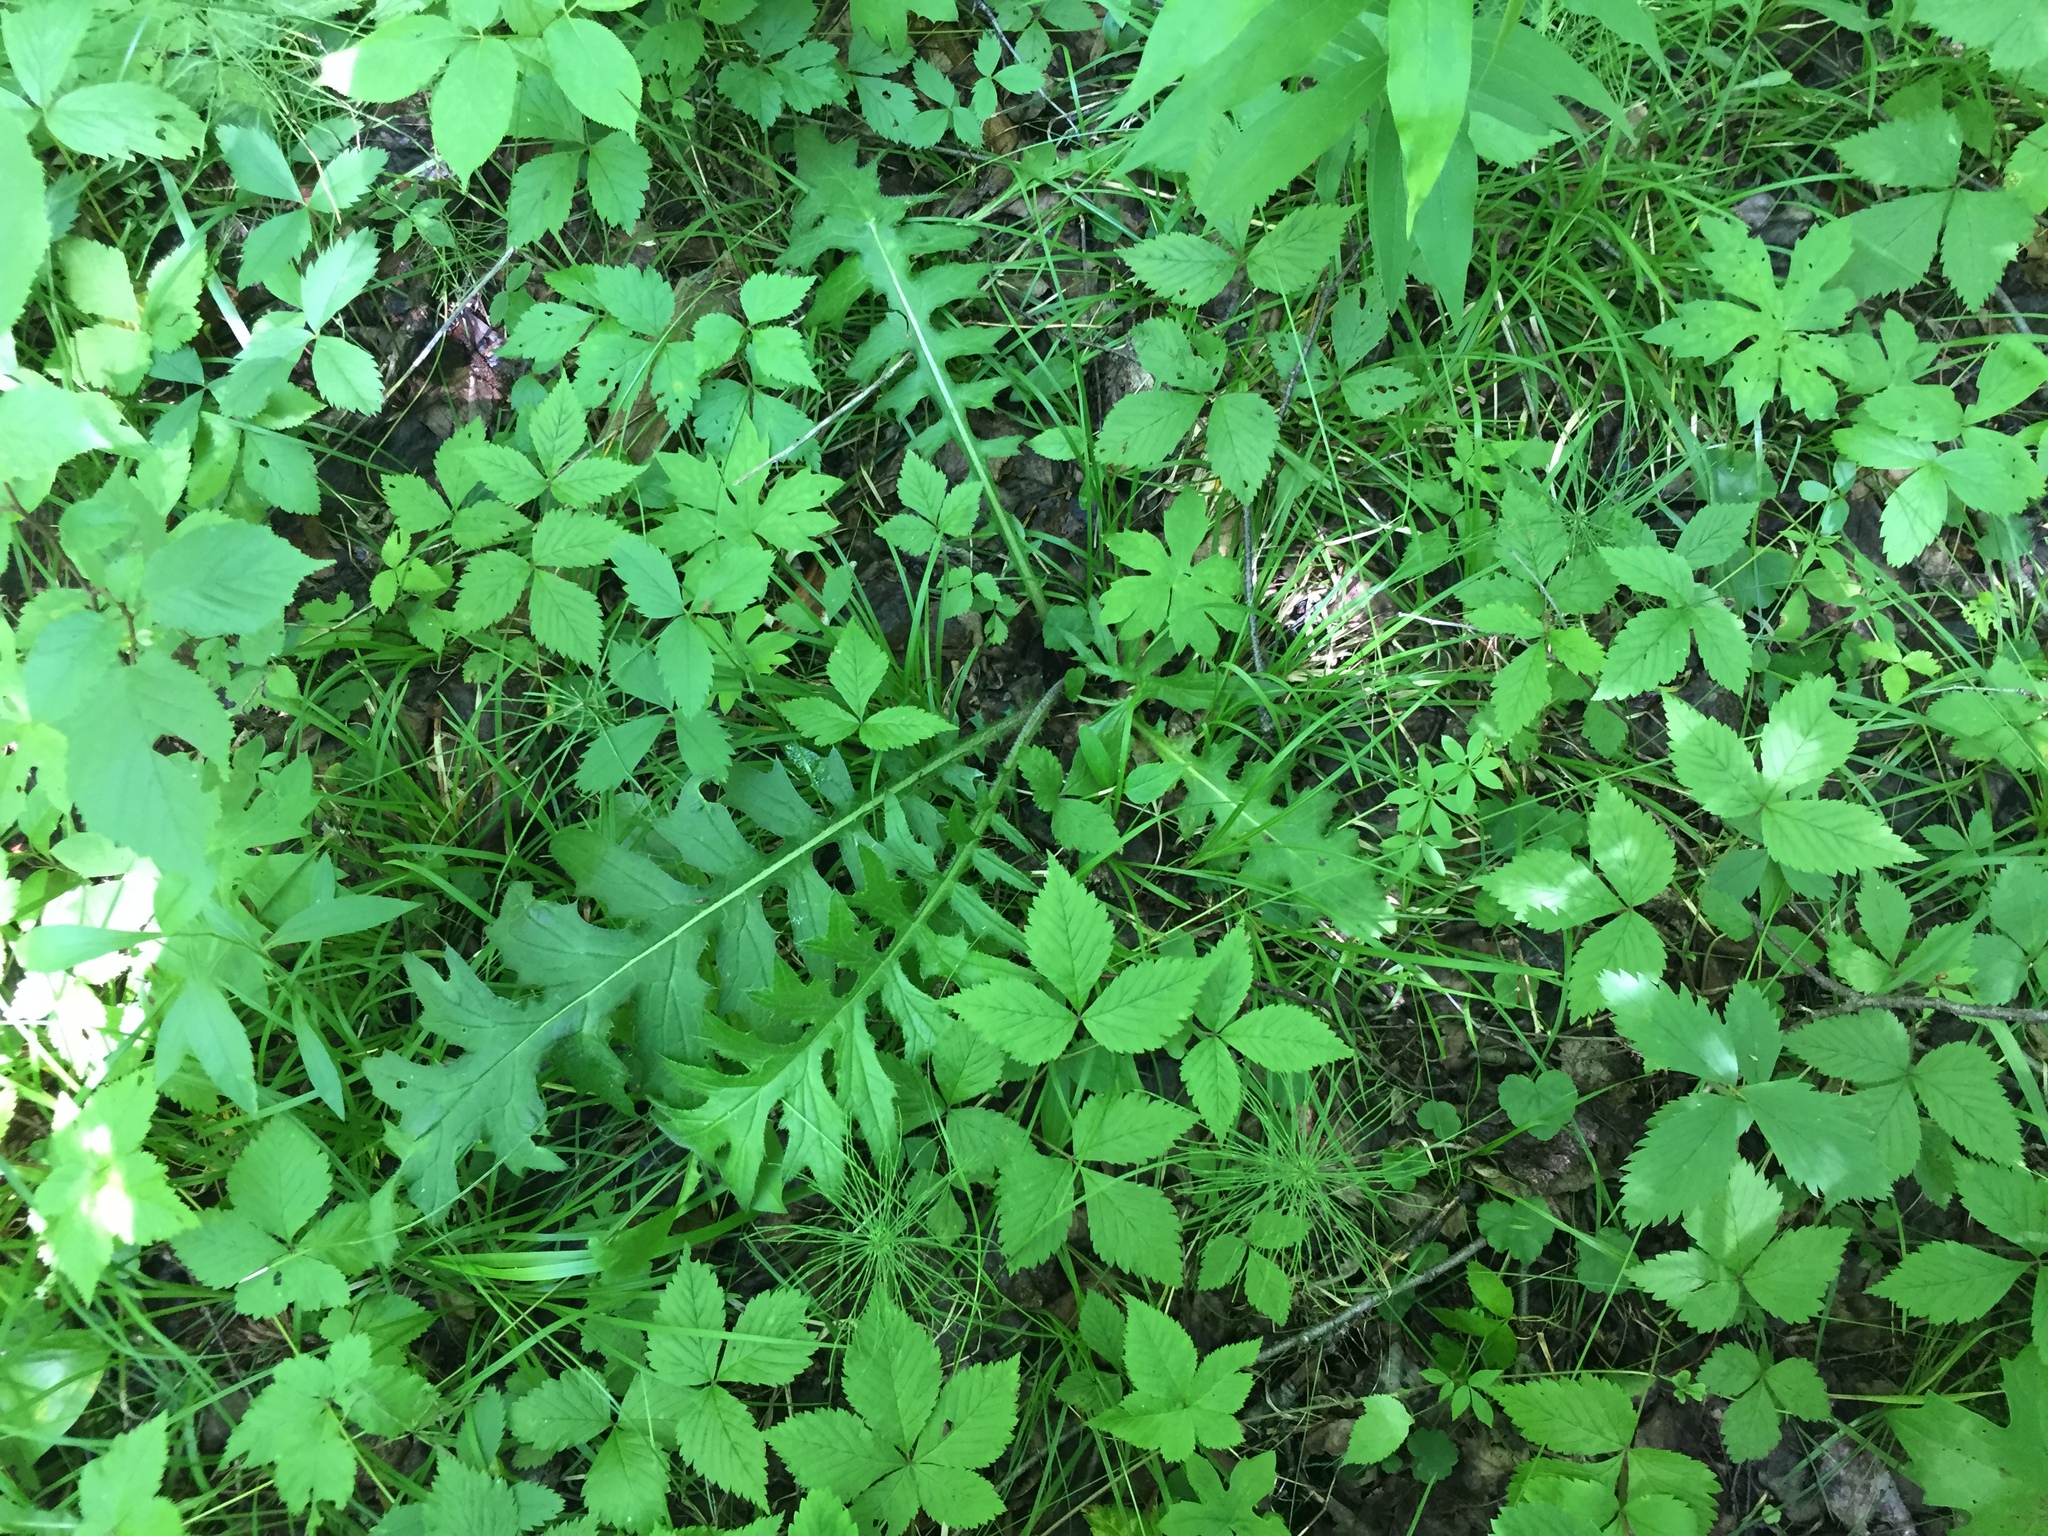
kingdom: Plantae
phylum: Tracheophyta
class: Magnoliopsida
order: Asterales
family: Asteraceae
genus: Cirsium
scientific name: Cirsium muticum
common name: Dunce-nettle
